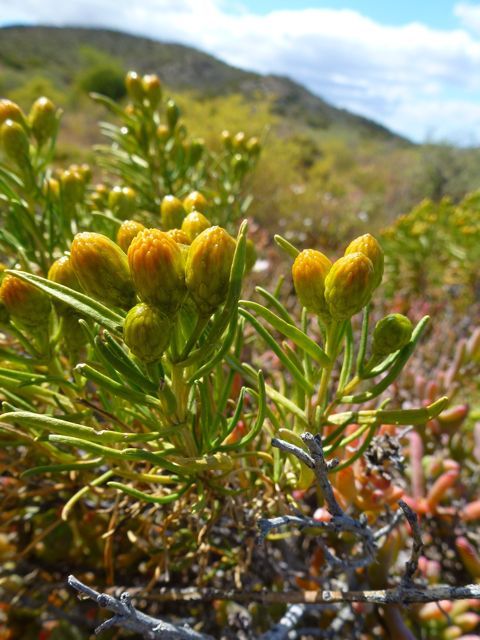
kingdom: Plantae
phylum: Tracheophyta
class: Magnoliopsida
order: Asterales
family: Asteraceae
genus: Pteronia
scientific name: Pteronia pallens
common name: Scholtzbush
